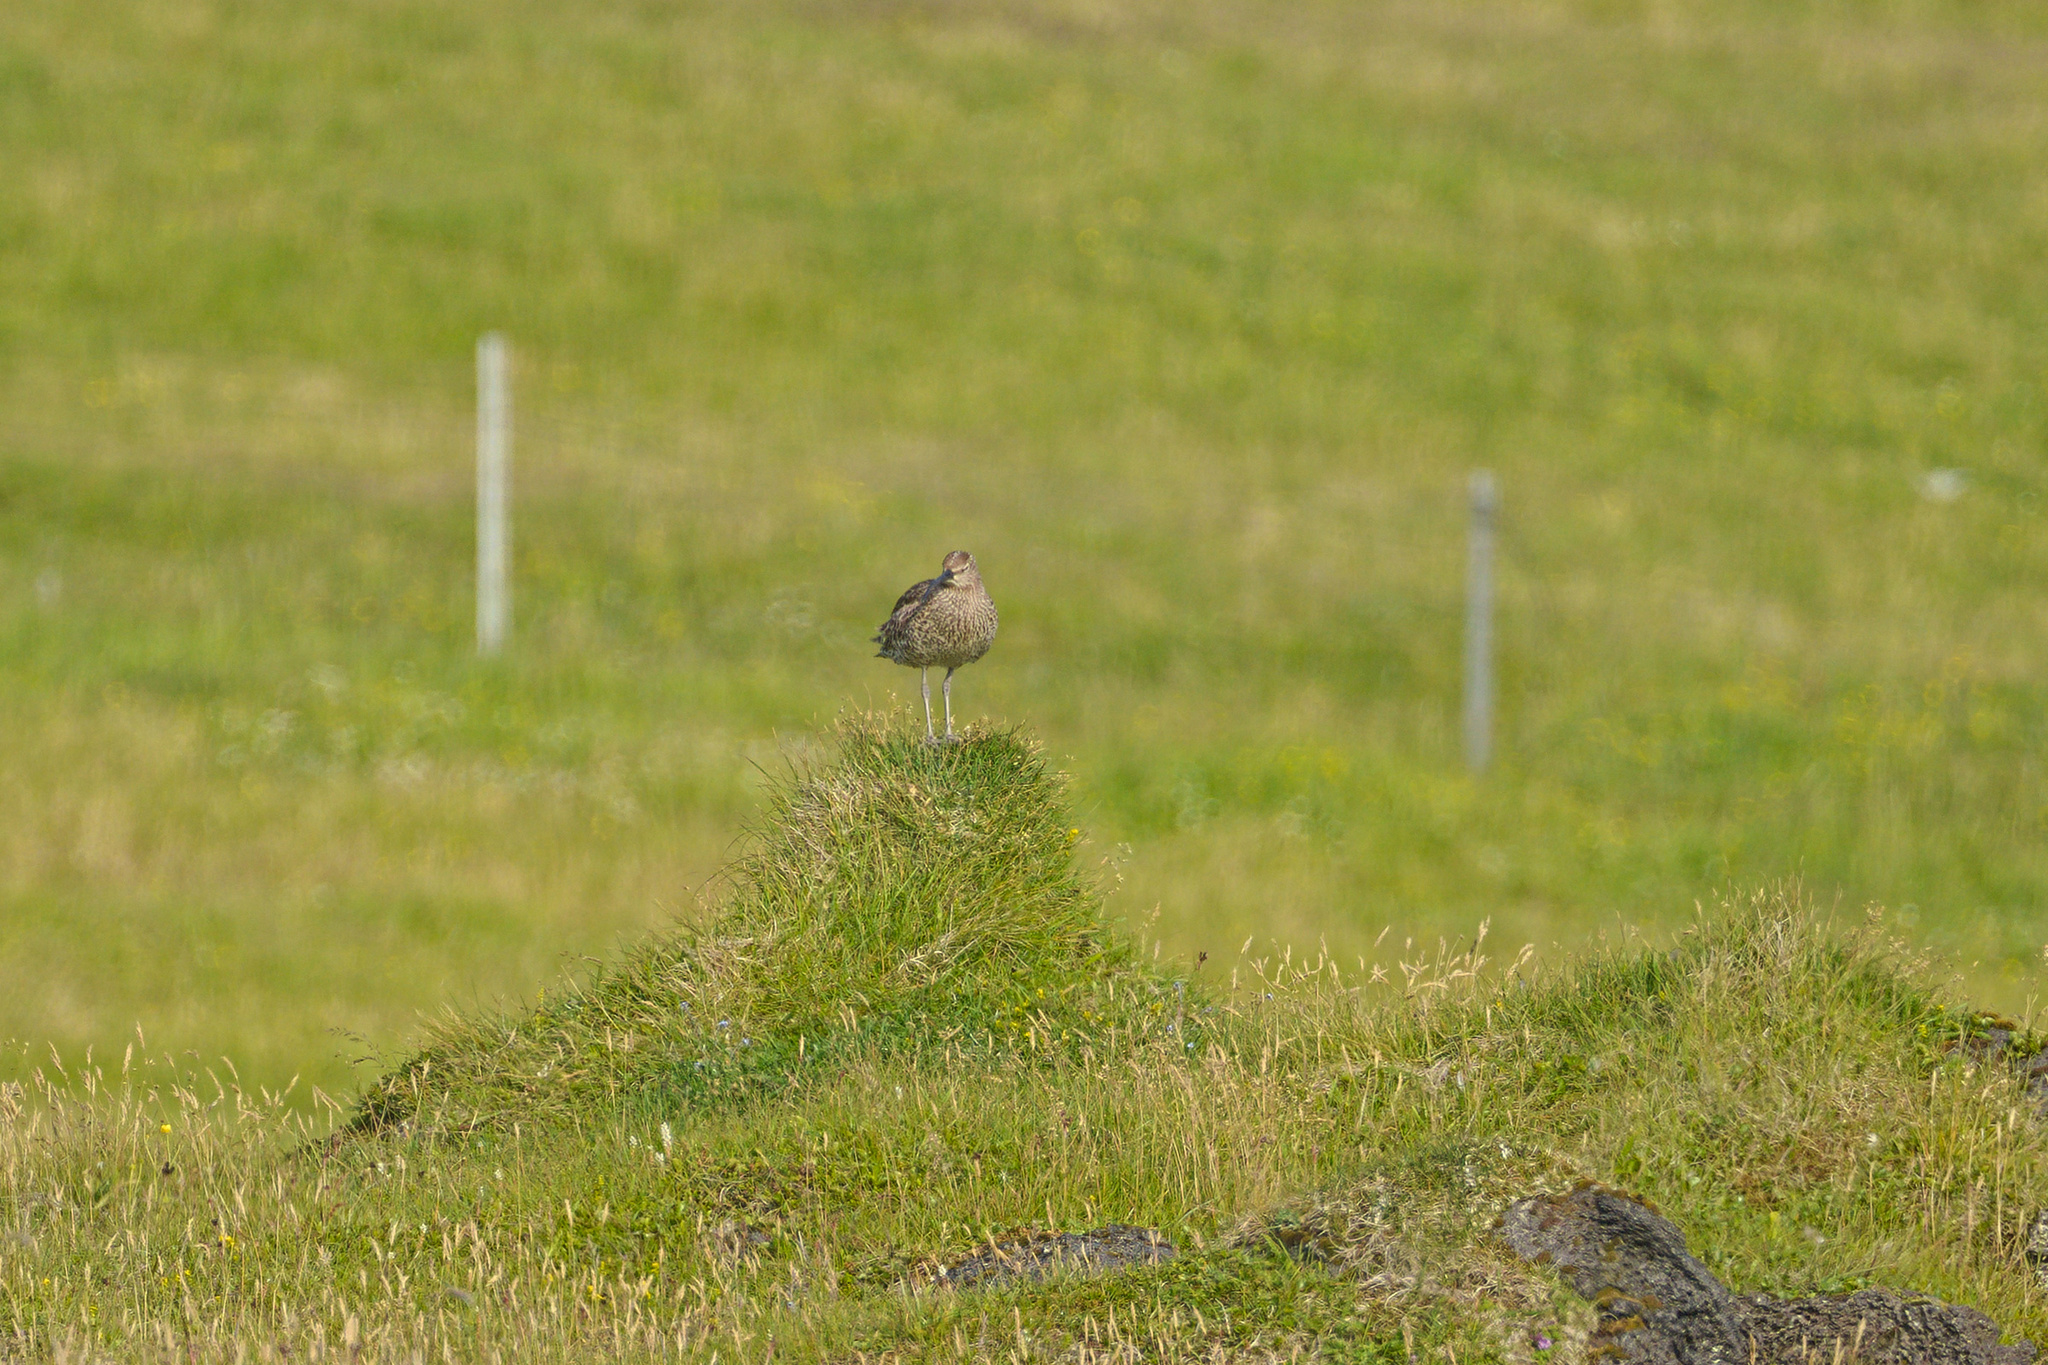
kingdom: Animalia
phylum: Chordata
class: Aves
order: Charadriiformes
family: Scolopacidae
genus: Numenius
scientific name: Numenius phaeopus
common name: Whimbrel
